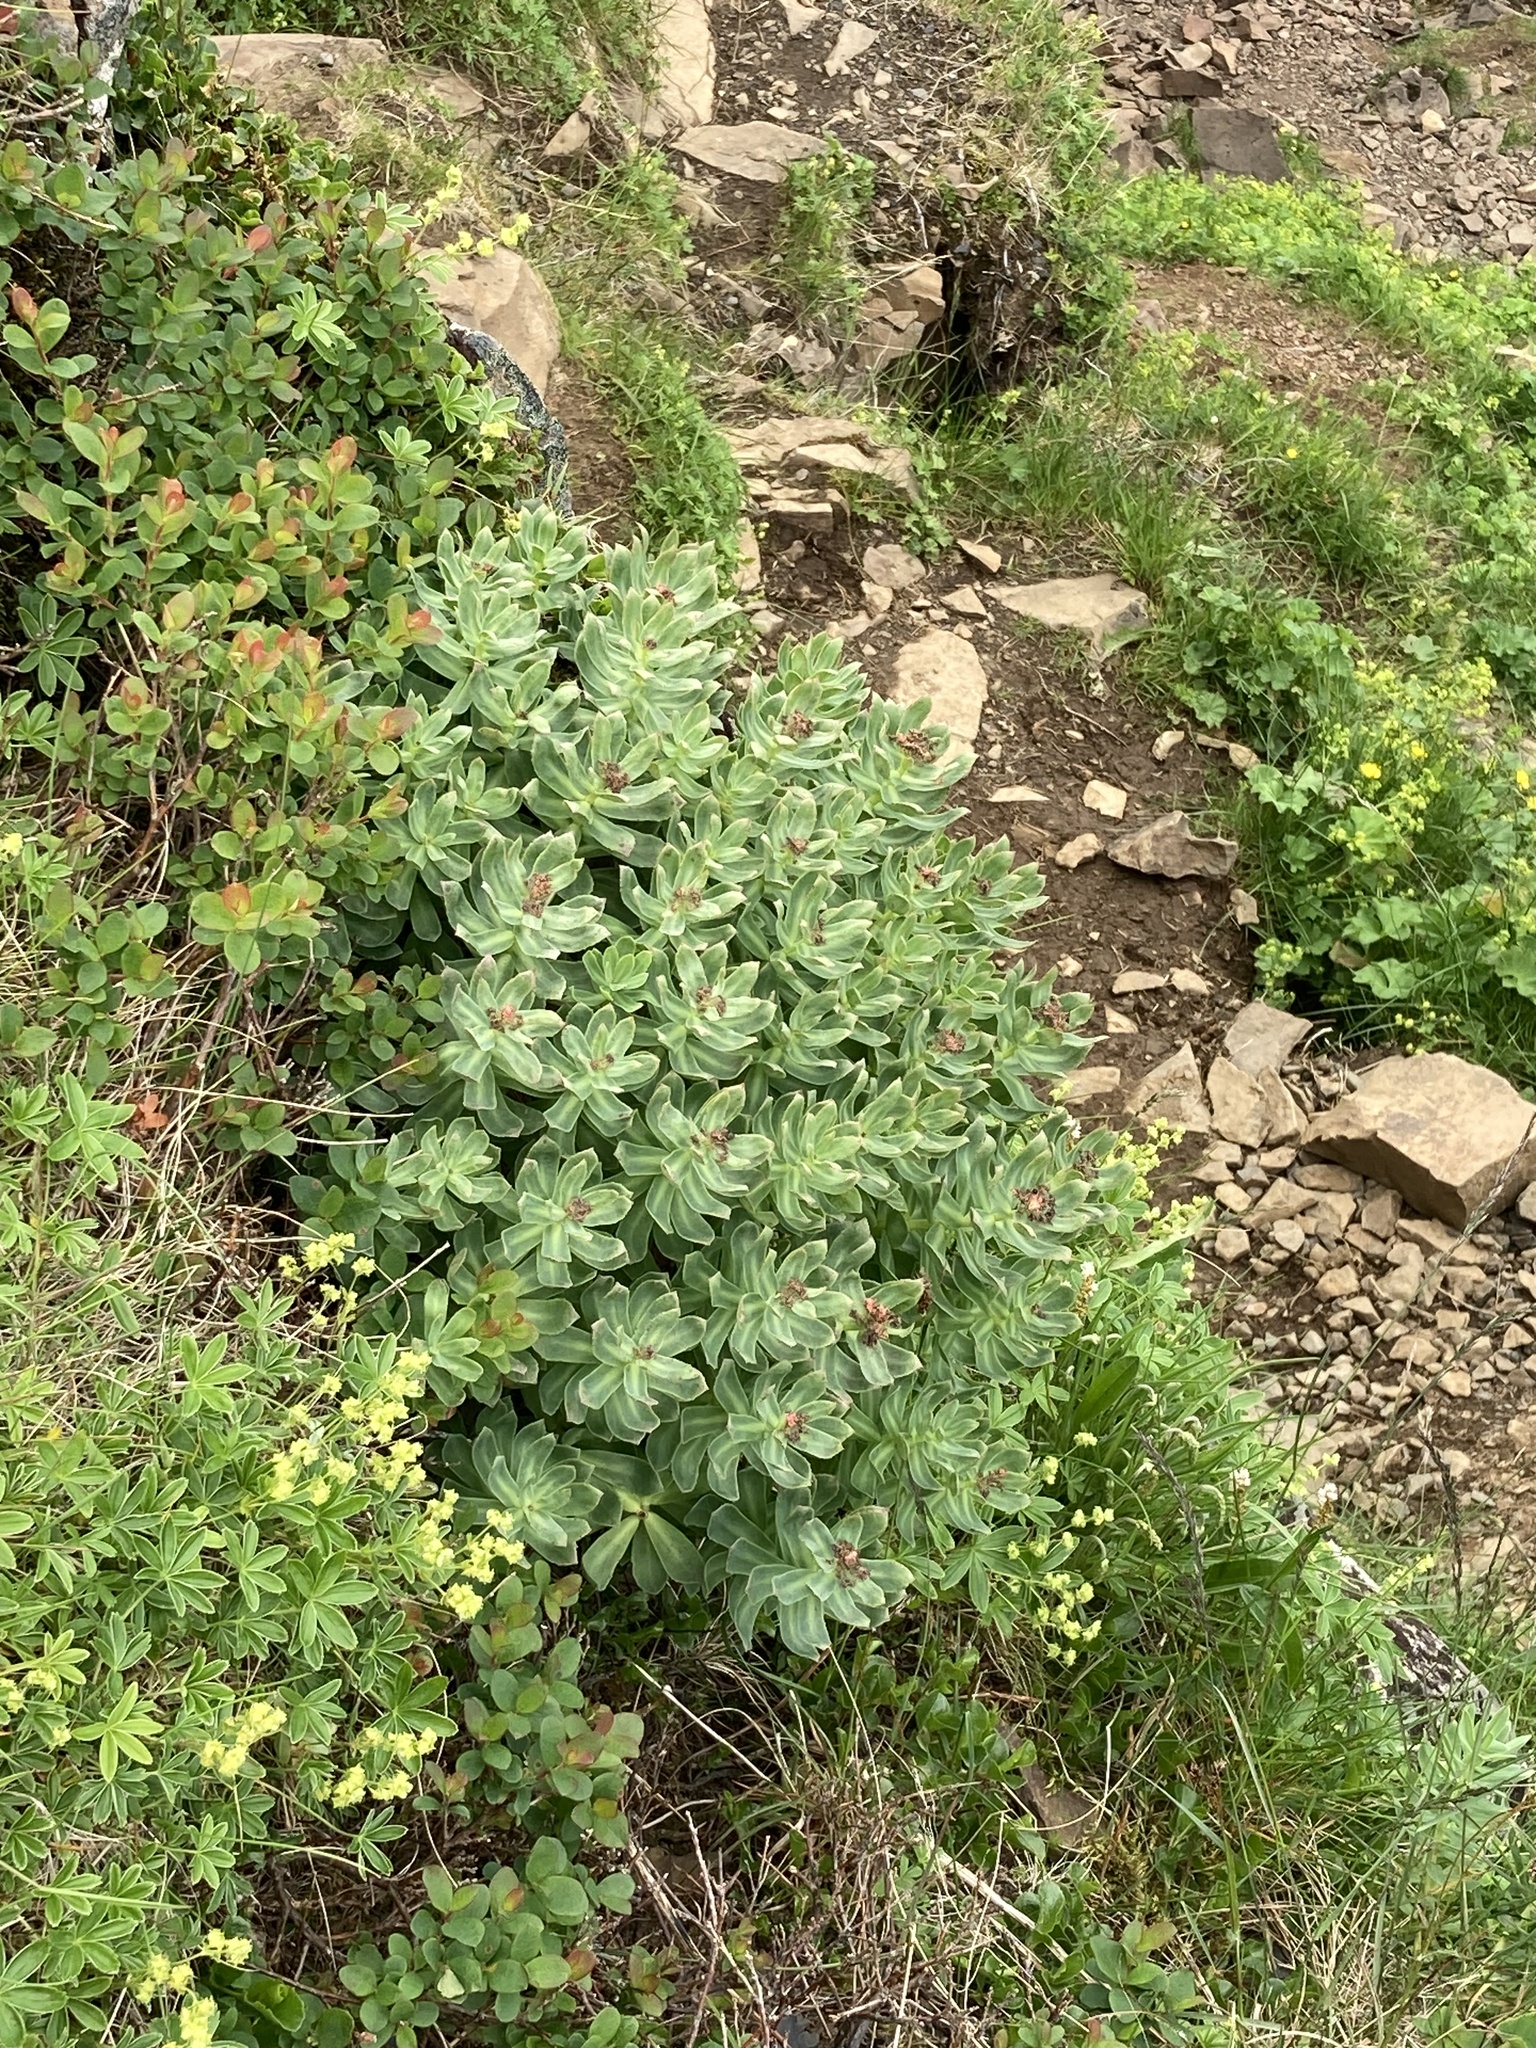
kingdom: Plantae
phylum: Tracheophyta
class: Magnoliopsida
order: Saxifragales
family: Crassulaceae
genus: Rhodiola
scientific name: Rhodiola rosea
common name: Roseroot
